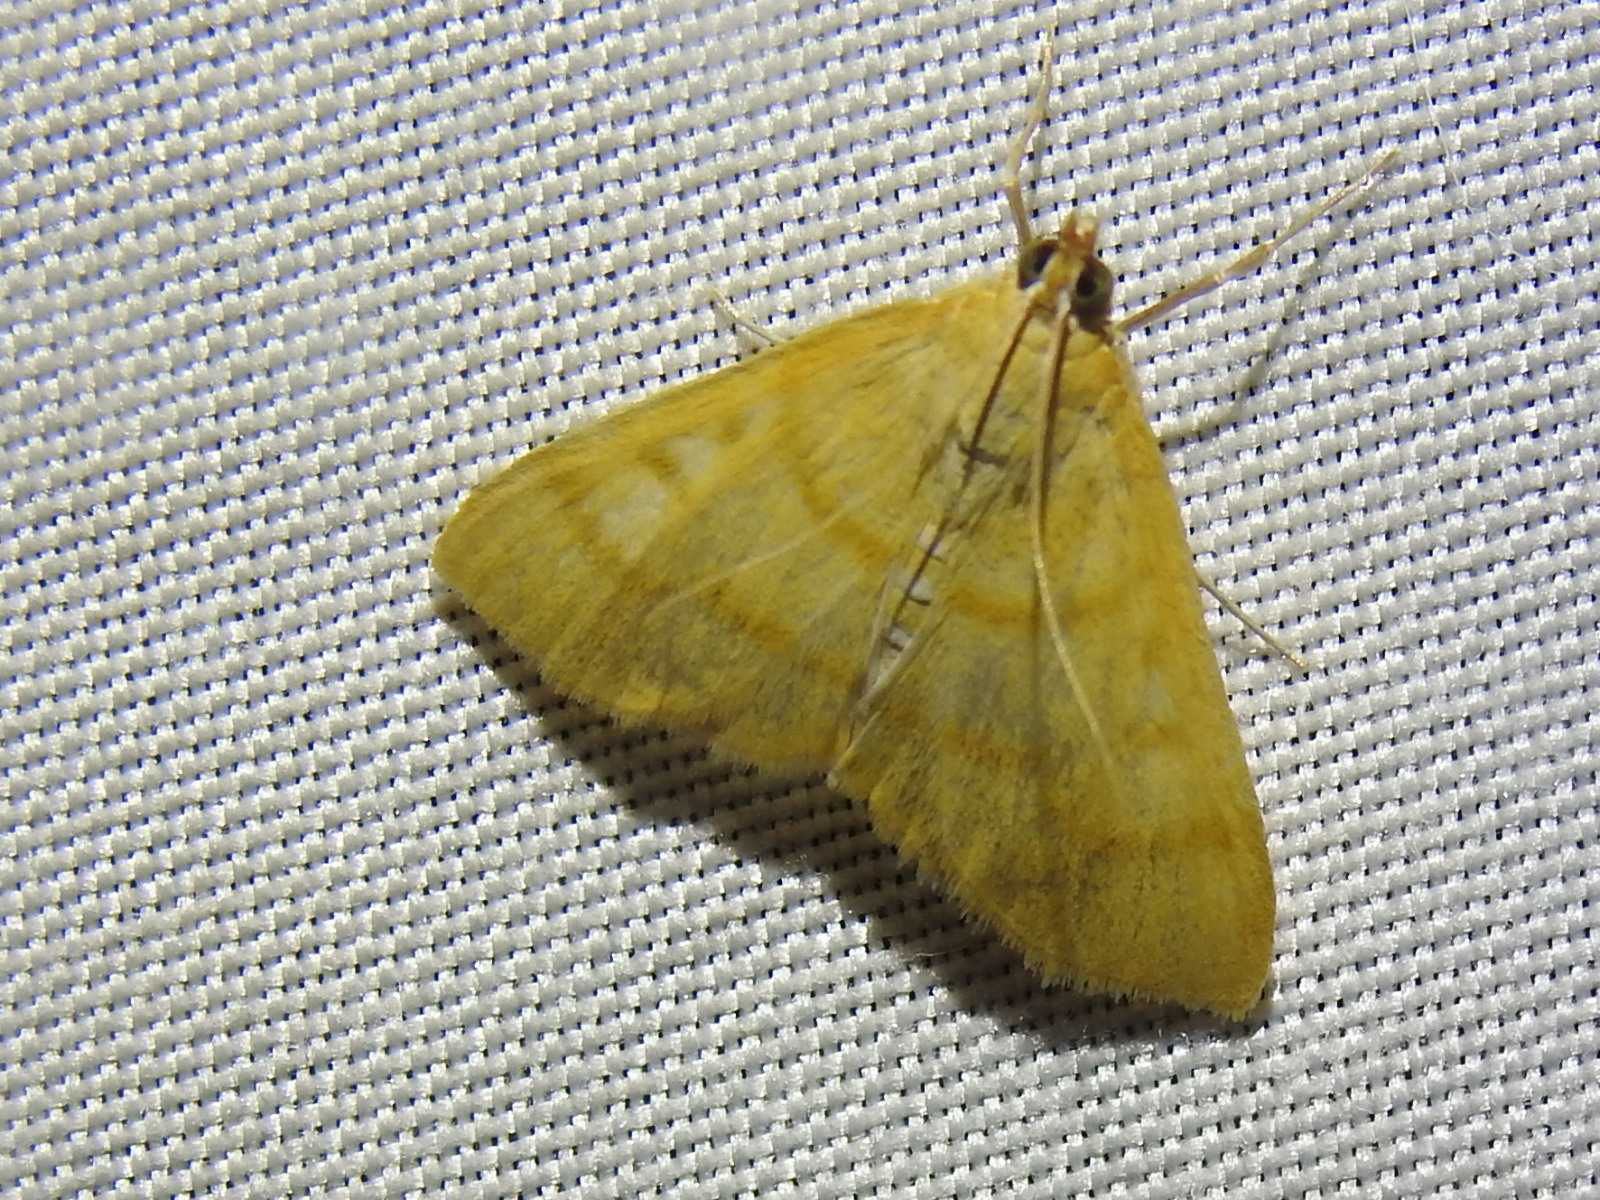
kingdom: Animalia
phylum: Arthropoda
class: Insecta
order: Lepidoptera
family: Crambidae
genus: Helvibotys
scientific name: Helvibotys helvialis
